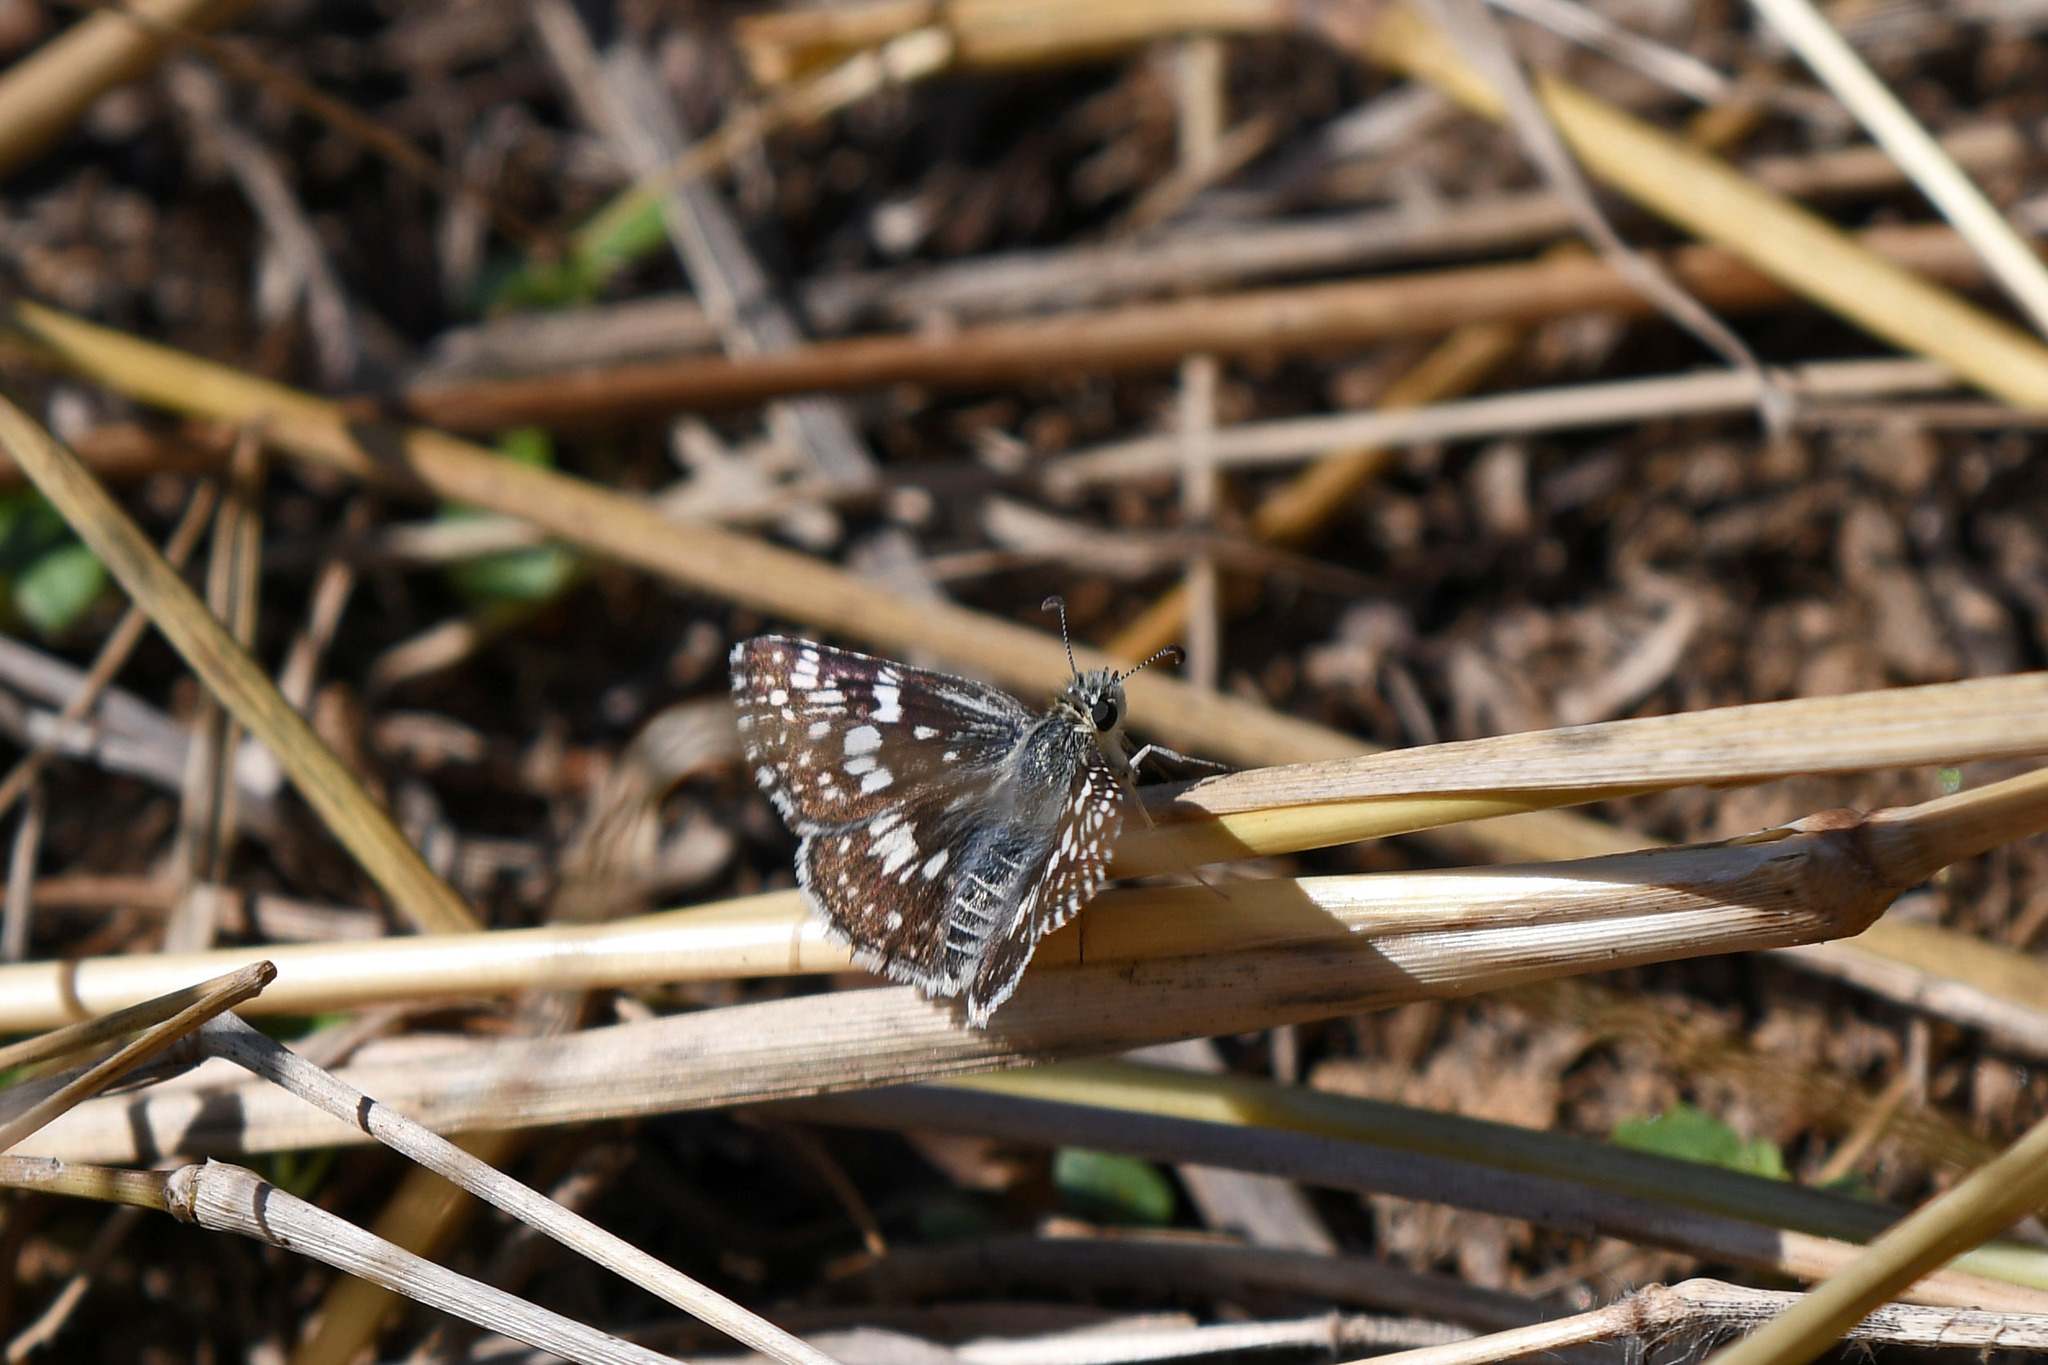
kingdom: Animalia
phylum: Arthropoda
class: Insecta
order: Lepidoptera
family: Hesperiidae
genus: Burnsius
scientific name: Burnsius communis
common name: Common checkered-skipper
